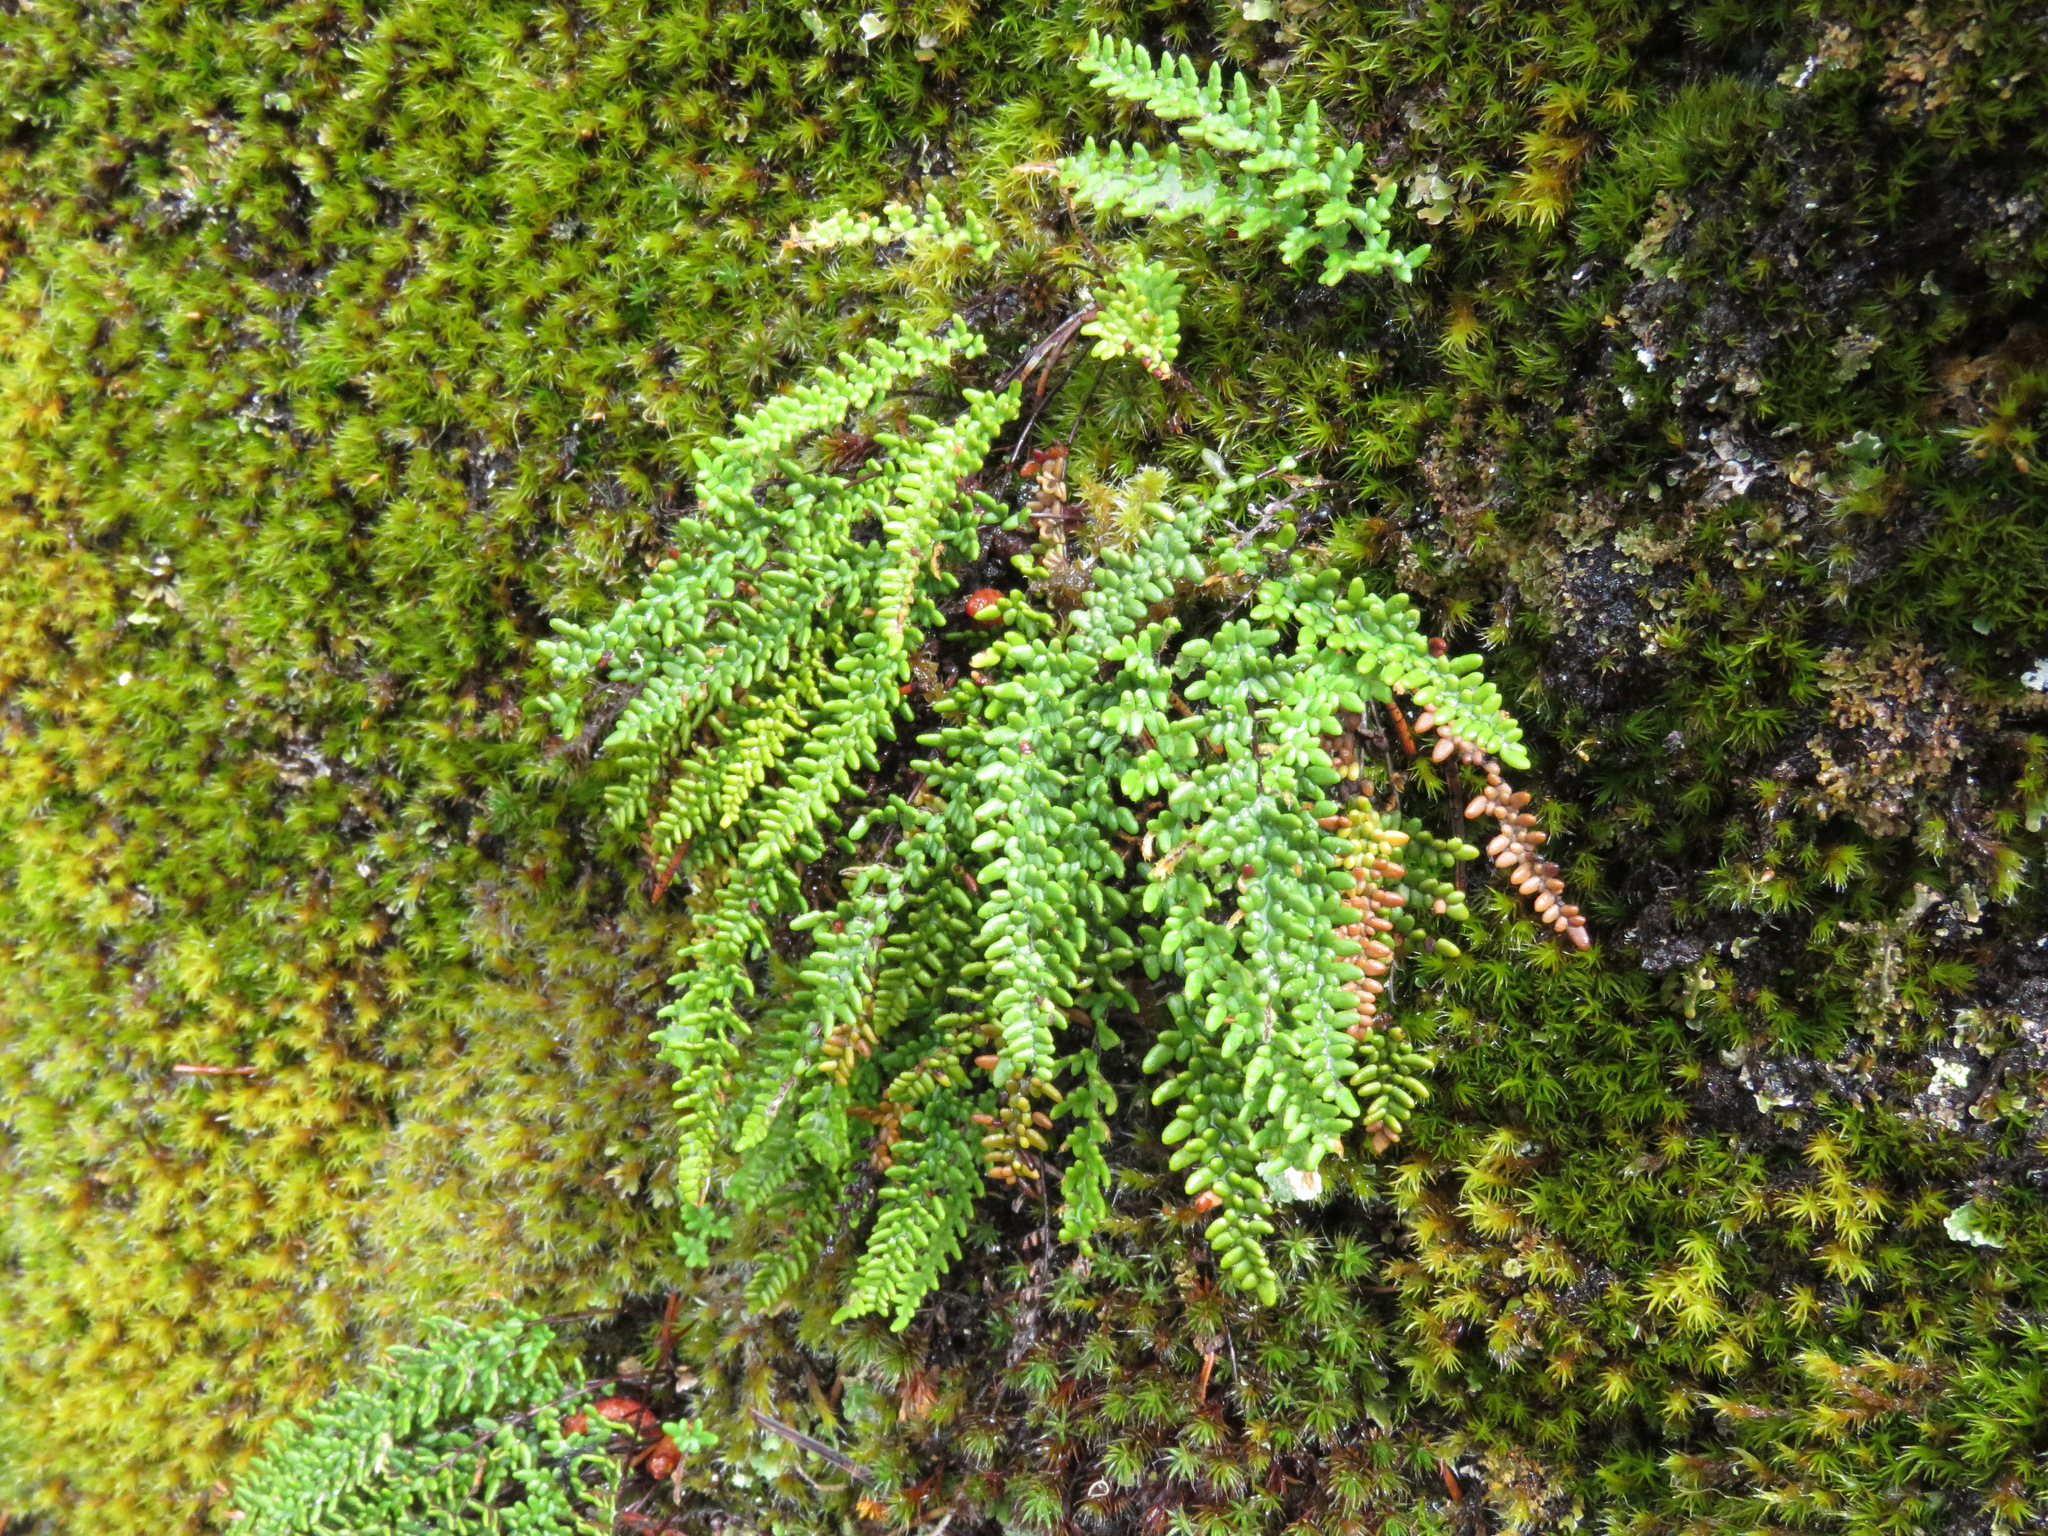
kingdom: Plantae
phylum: Tracheophyta
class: Polypodiopsida
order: Polypodiales
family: Pteridaceae
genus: Myriopteris
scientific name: Myriopteris gracillima
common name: Lace fern
